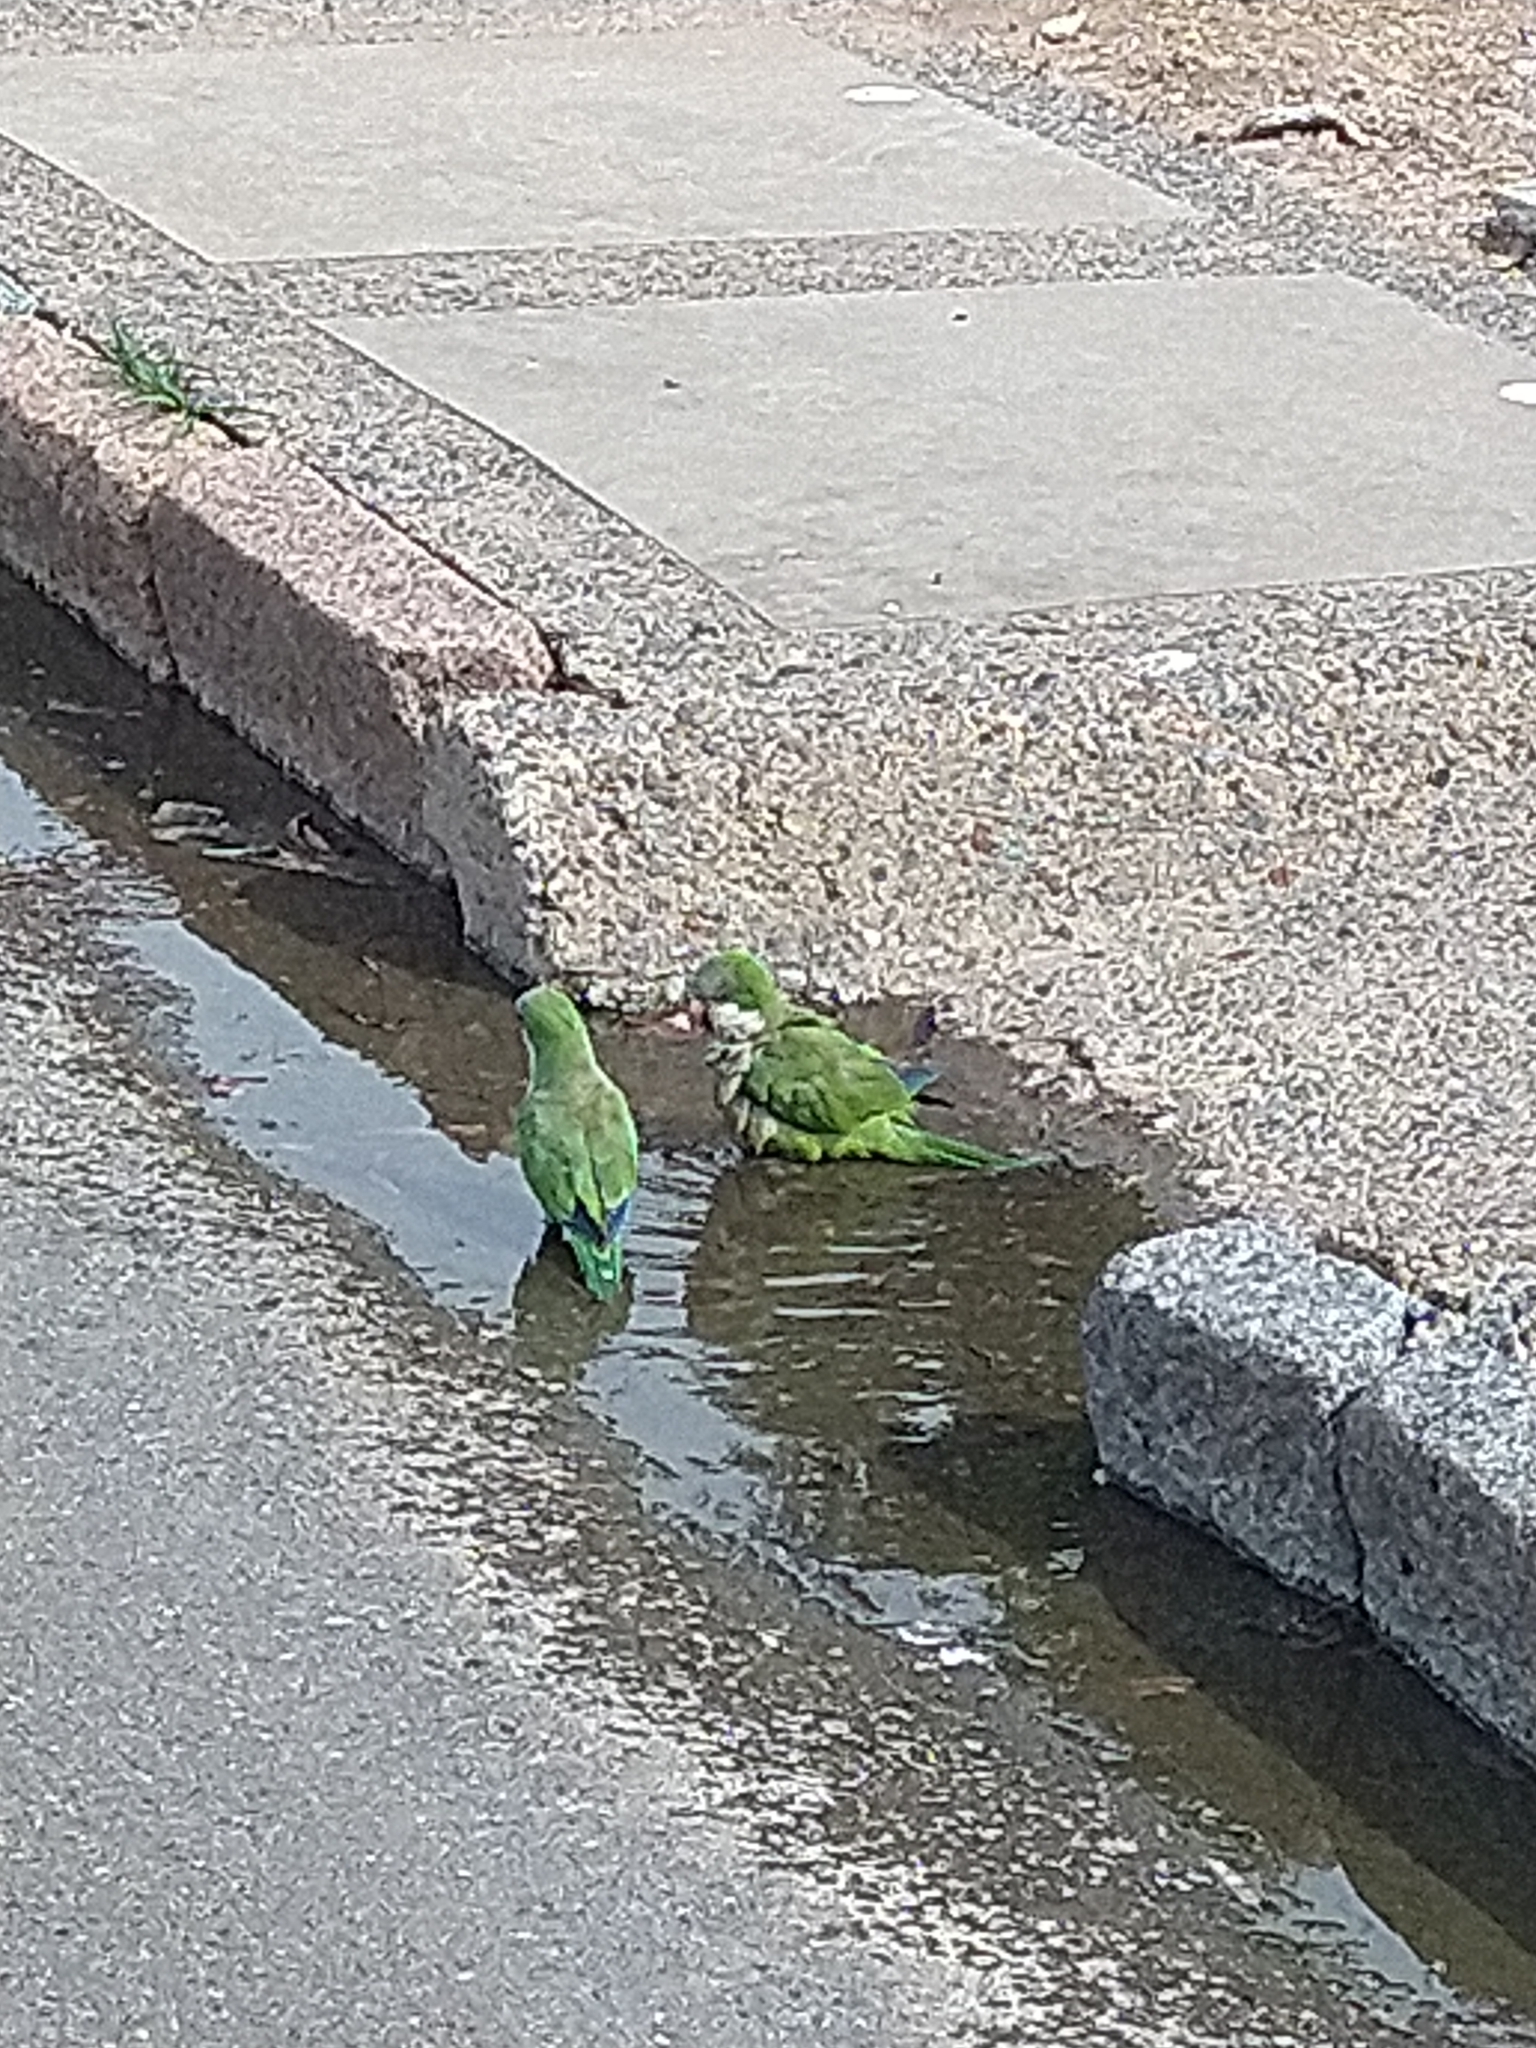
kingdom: Animalia
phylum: Chordata
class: Aves
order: Psittaciformes
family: Psittacidae
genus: Myiopsitta
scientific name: Myiopsitta monachus
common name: Monk parakeet
